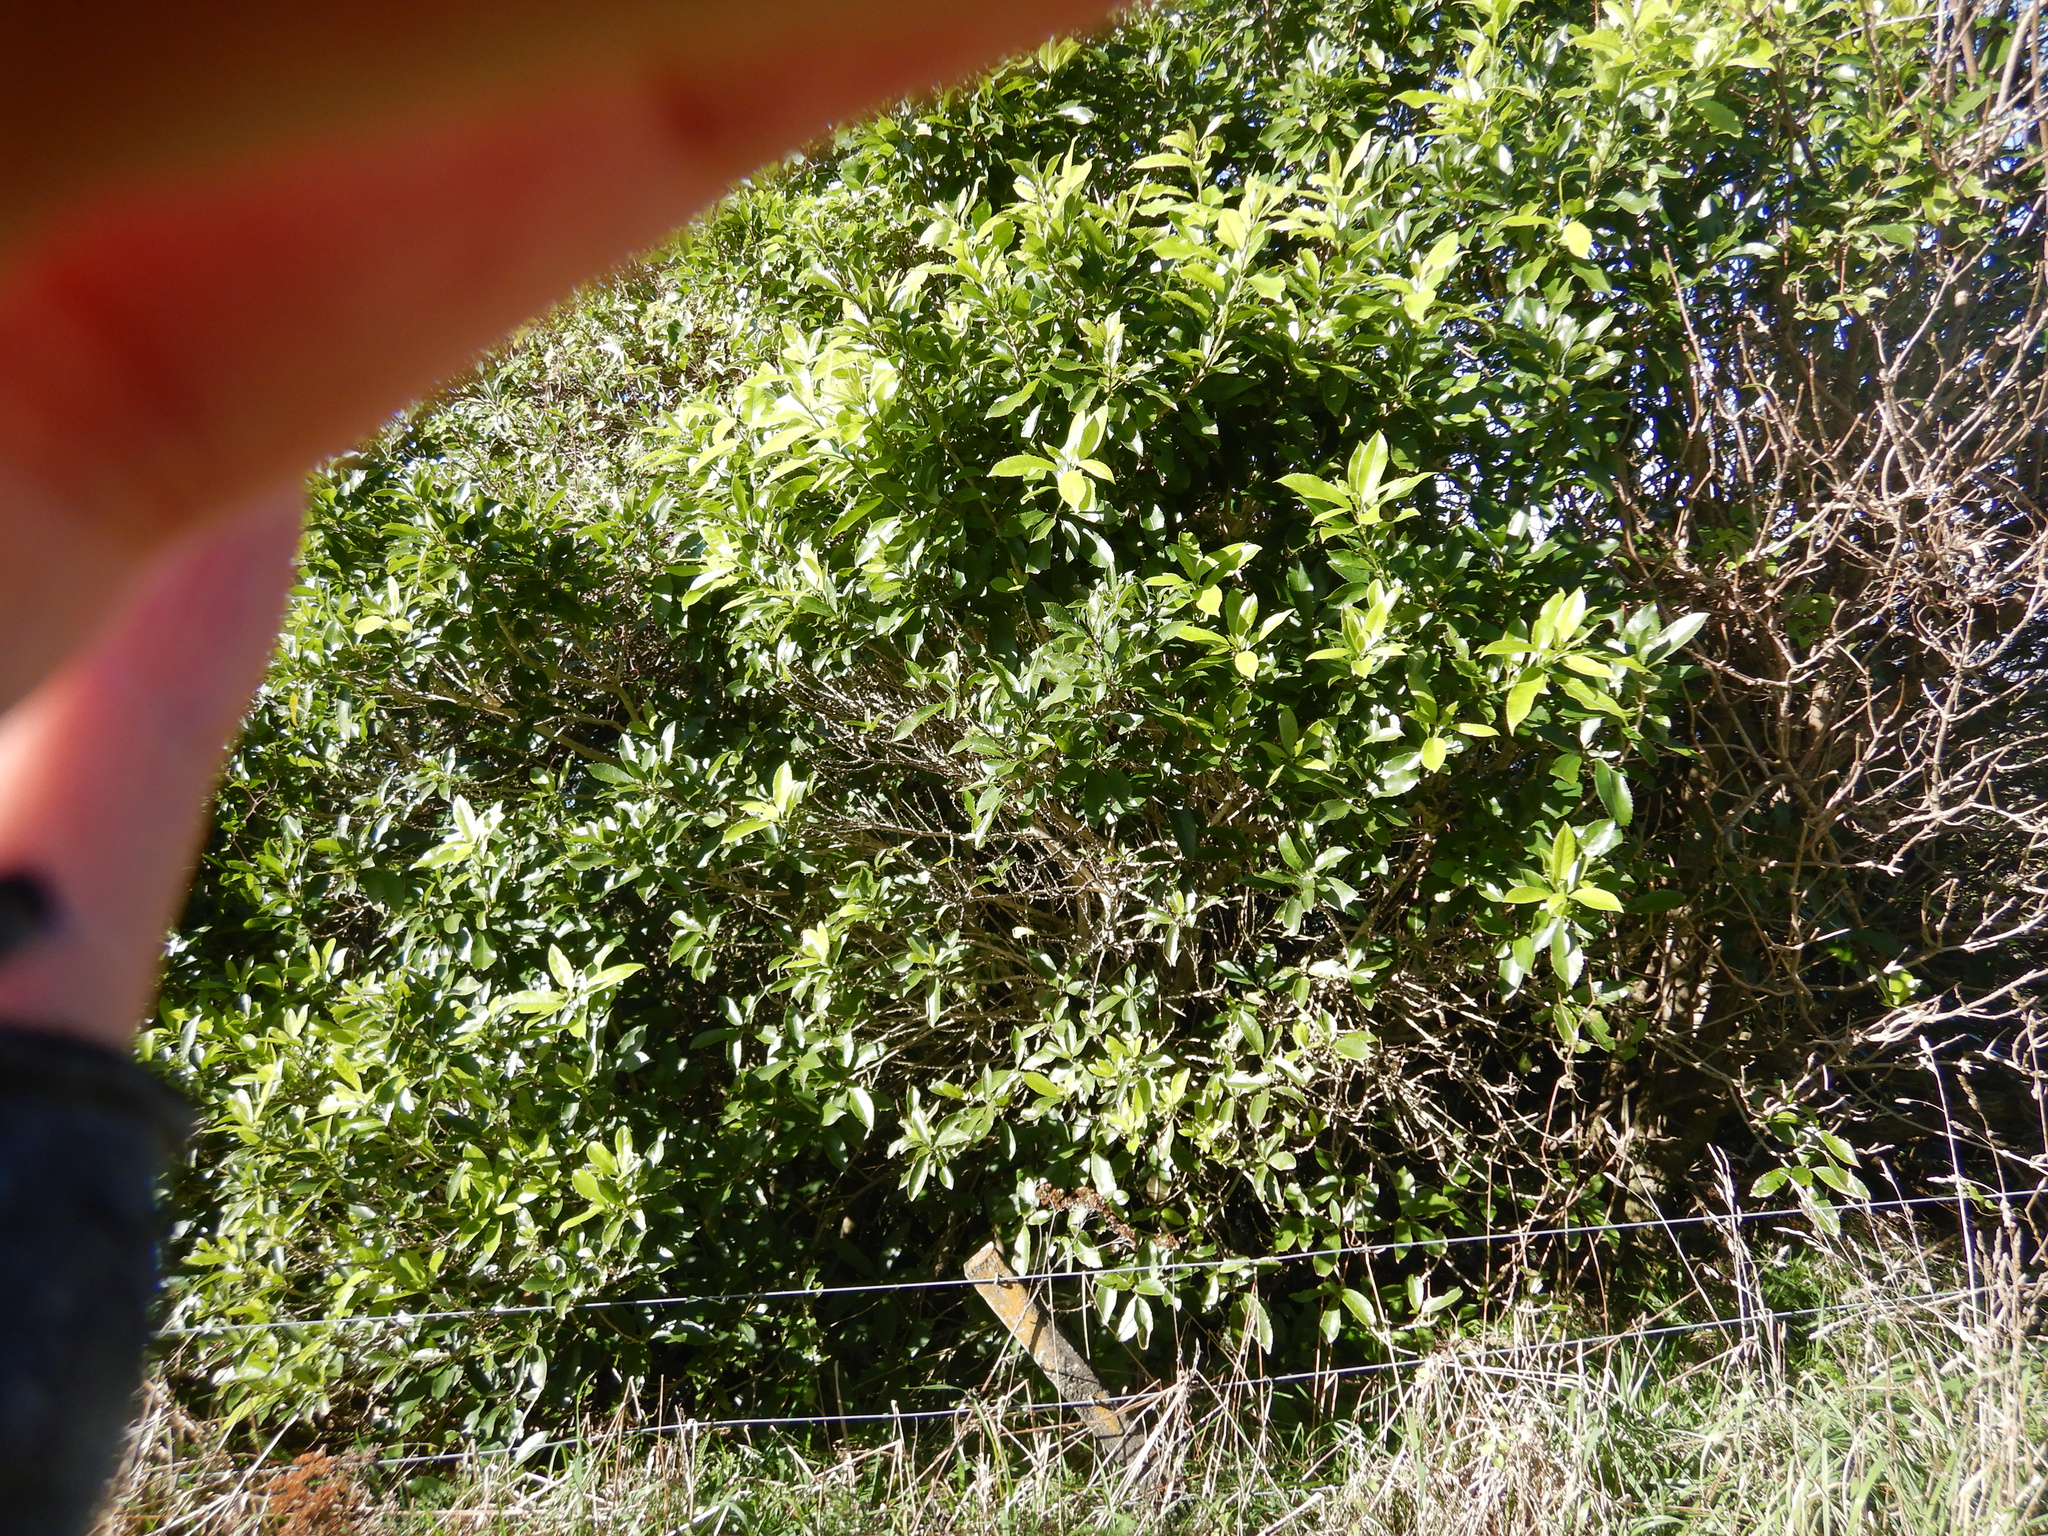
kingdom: Plantae
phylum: Tracheophyta
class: Magnoliopsida
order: Malpighiales
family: Violaceae
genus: Melicytus
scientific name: Melicytus ramiflorus
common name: Mahoe
